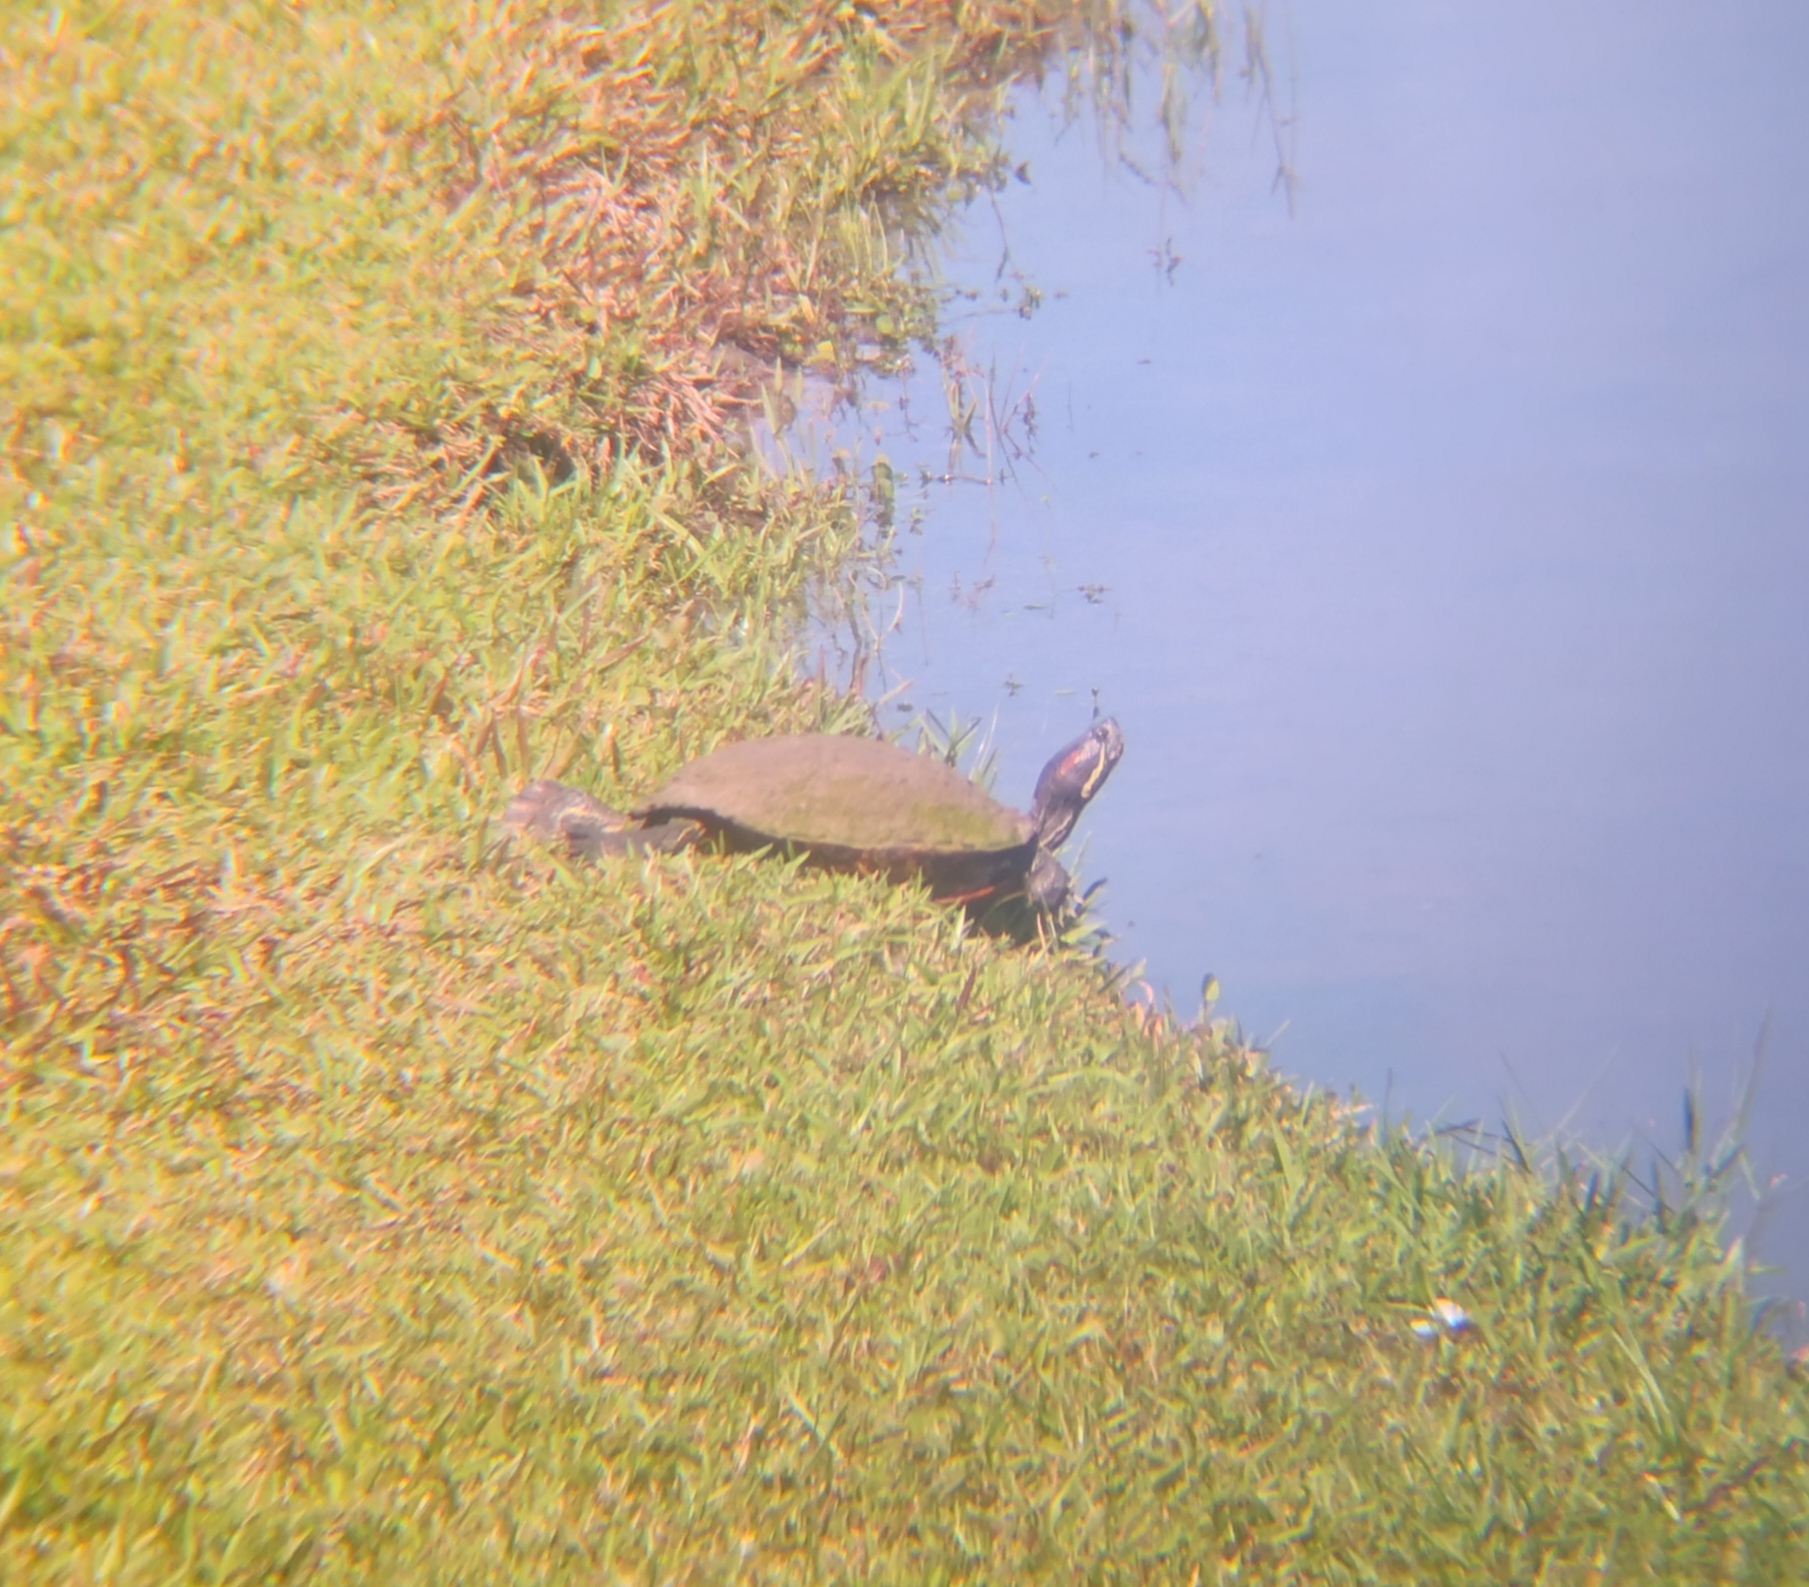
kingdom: Animalia
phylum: Chordata
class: Testudines
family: Emydidae
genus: Trachemys
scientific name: Trachemys scripta
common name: Slider
